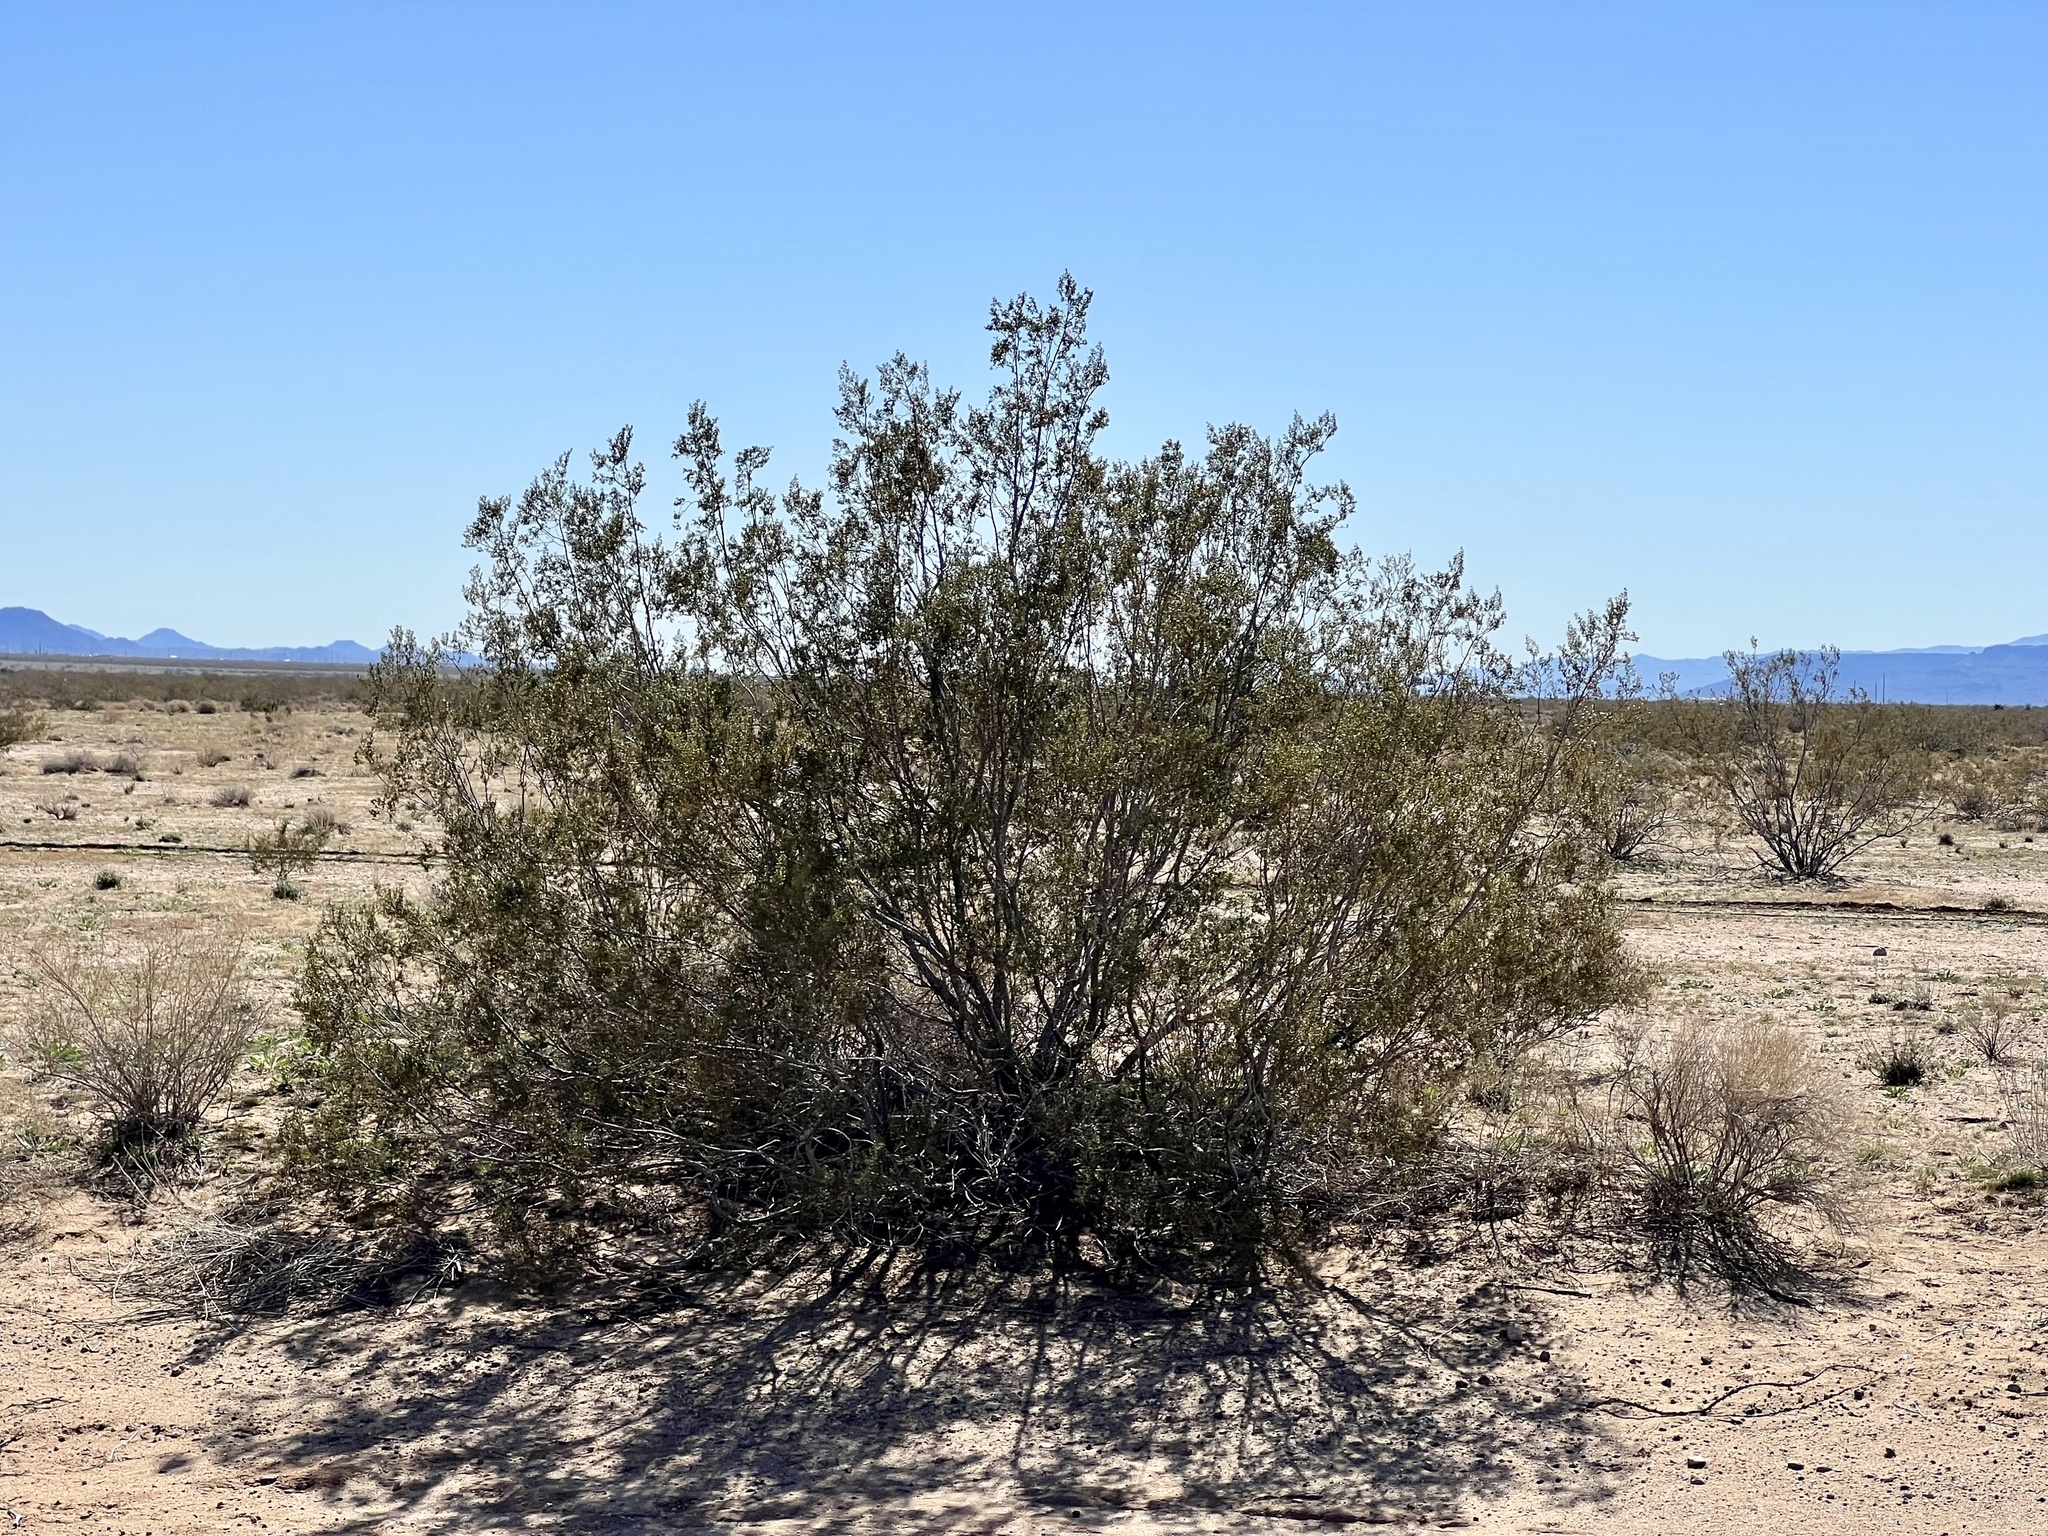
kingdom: Plantae
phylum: Tracheophyta
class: Magnoliopsida
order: Zygophyllales
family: Zygophyllaceae
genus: Larrea
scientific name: Larrea tridentata
